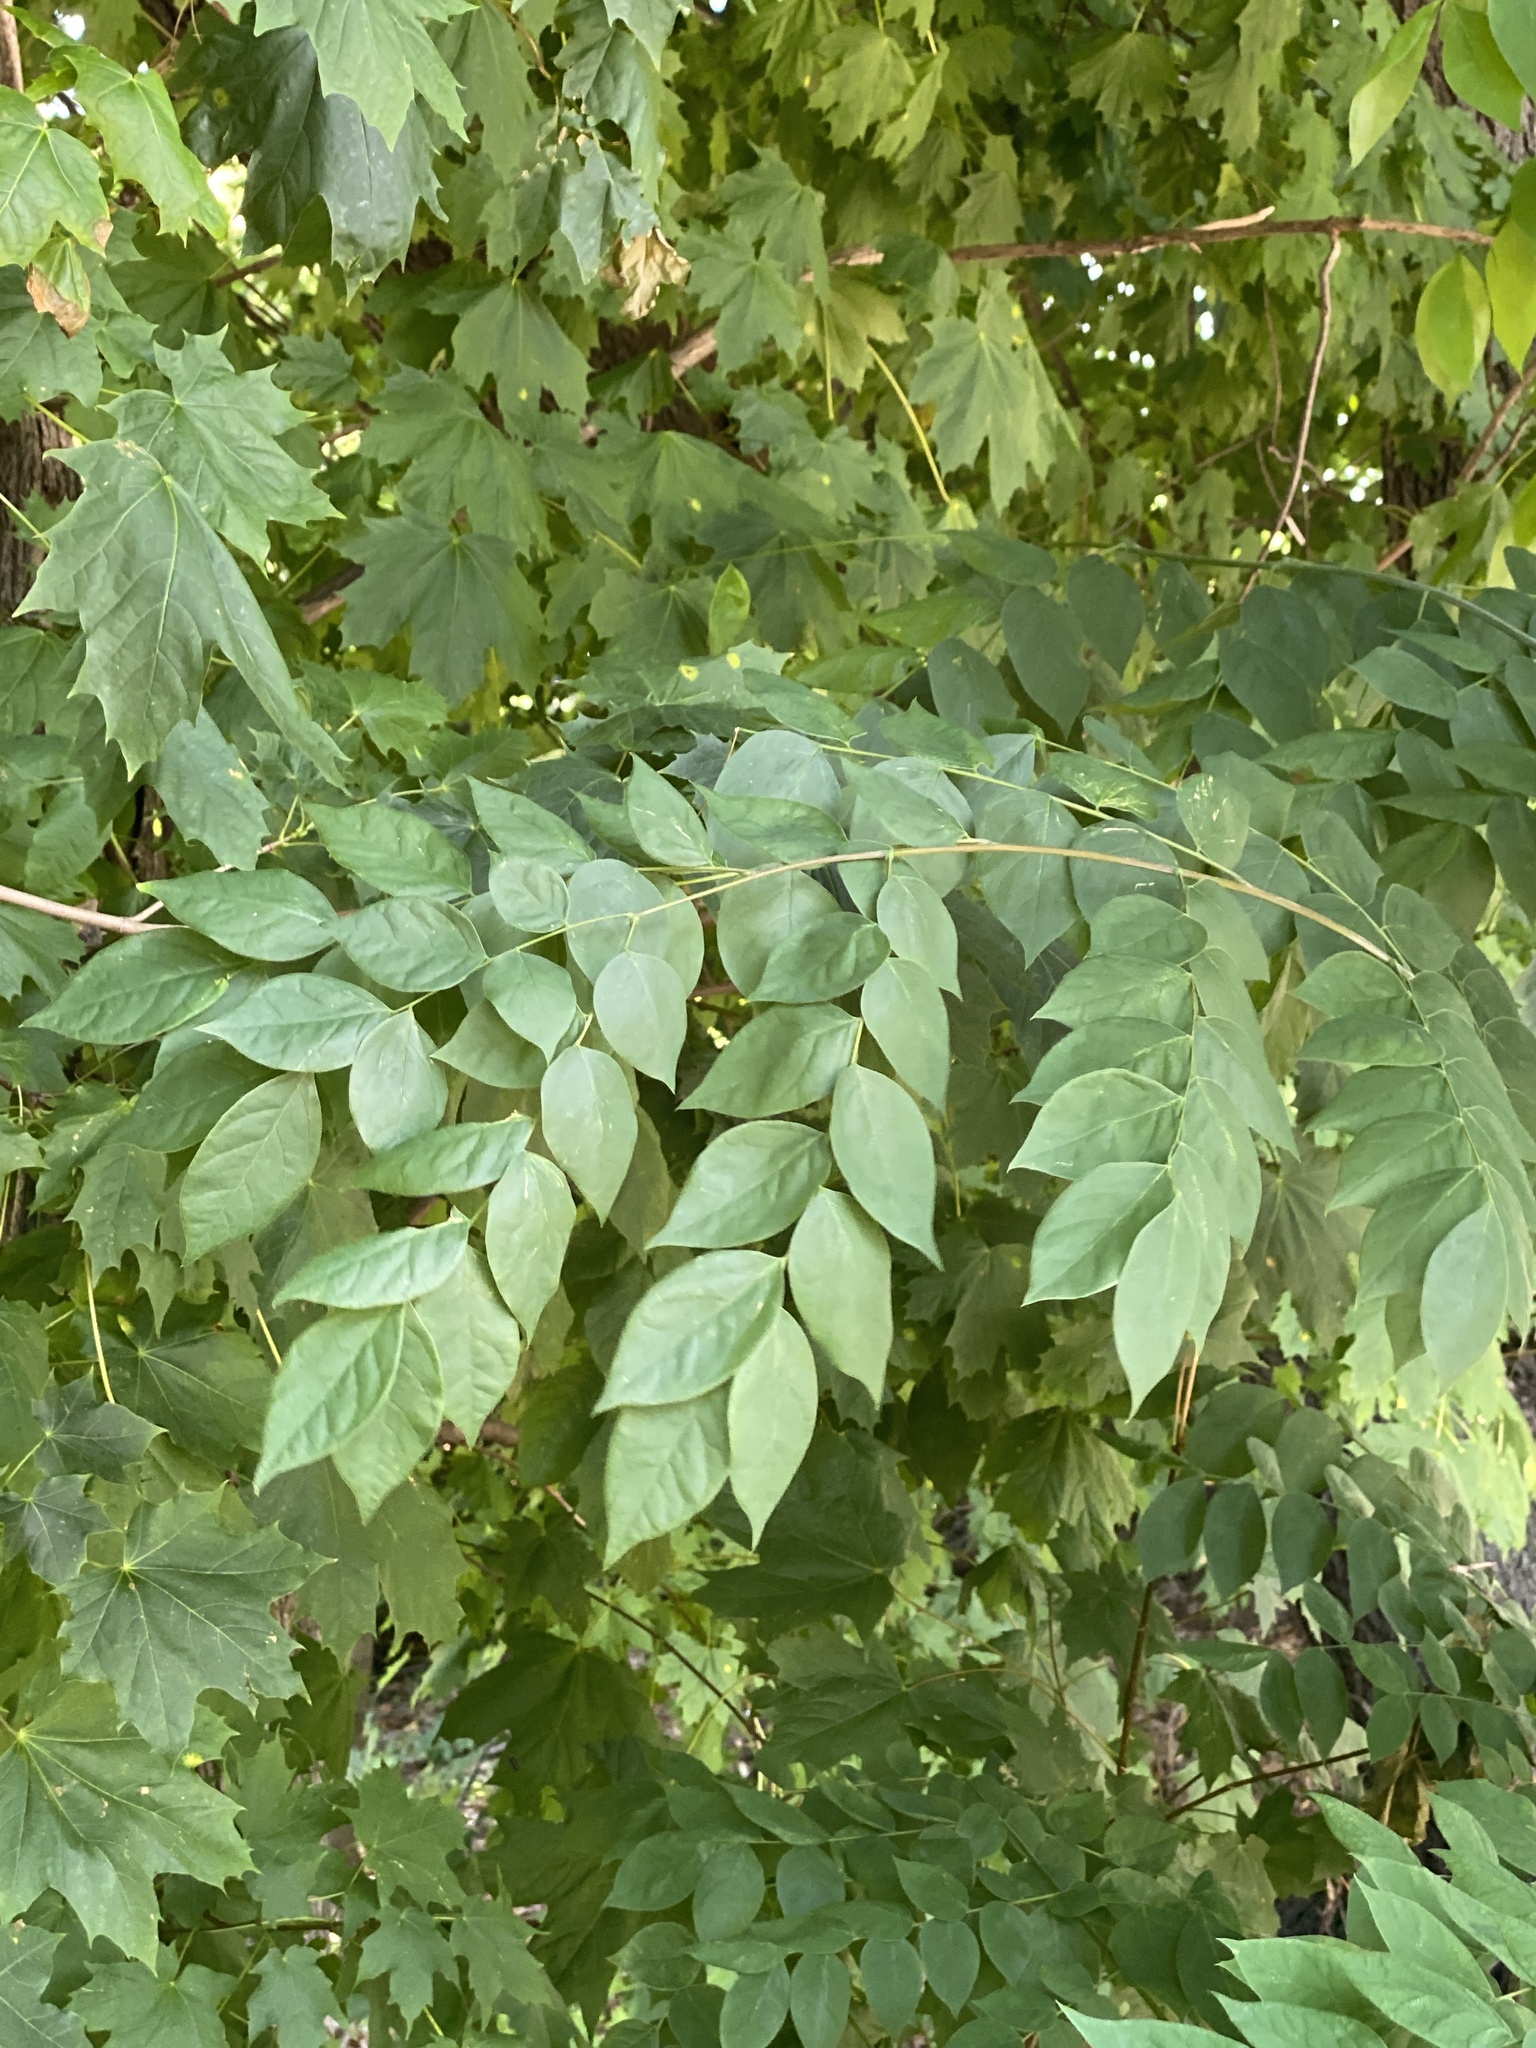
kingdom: Plantae
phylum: Tracheophyta
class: Magnoliopsida
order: Fabales
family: Fabaceae
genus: Gymnocladus
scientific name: Gymnocladus dioicus
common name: Kentucky coffee-tree
